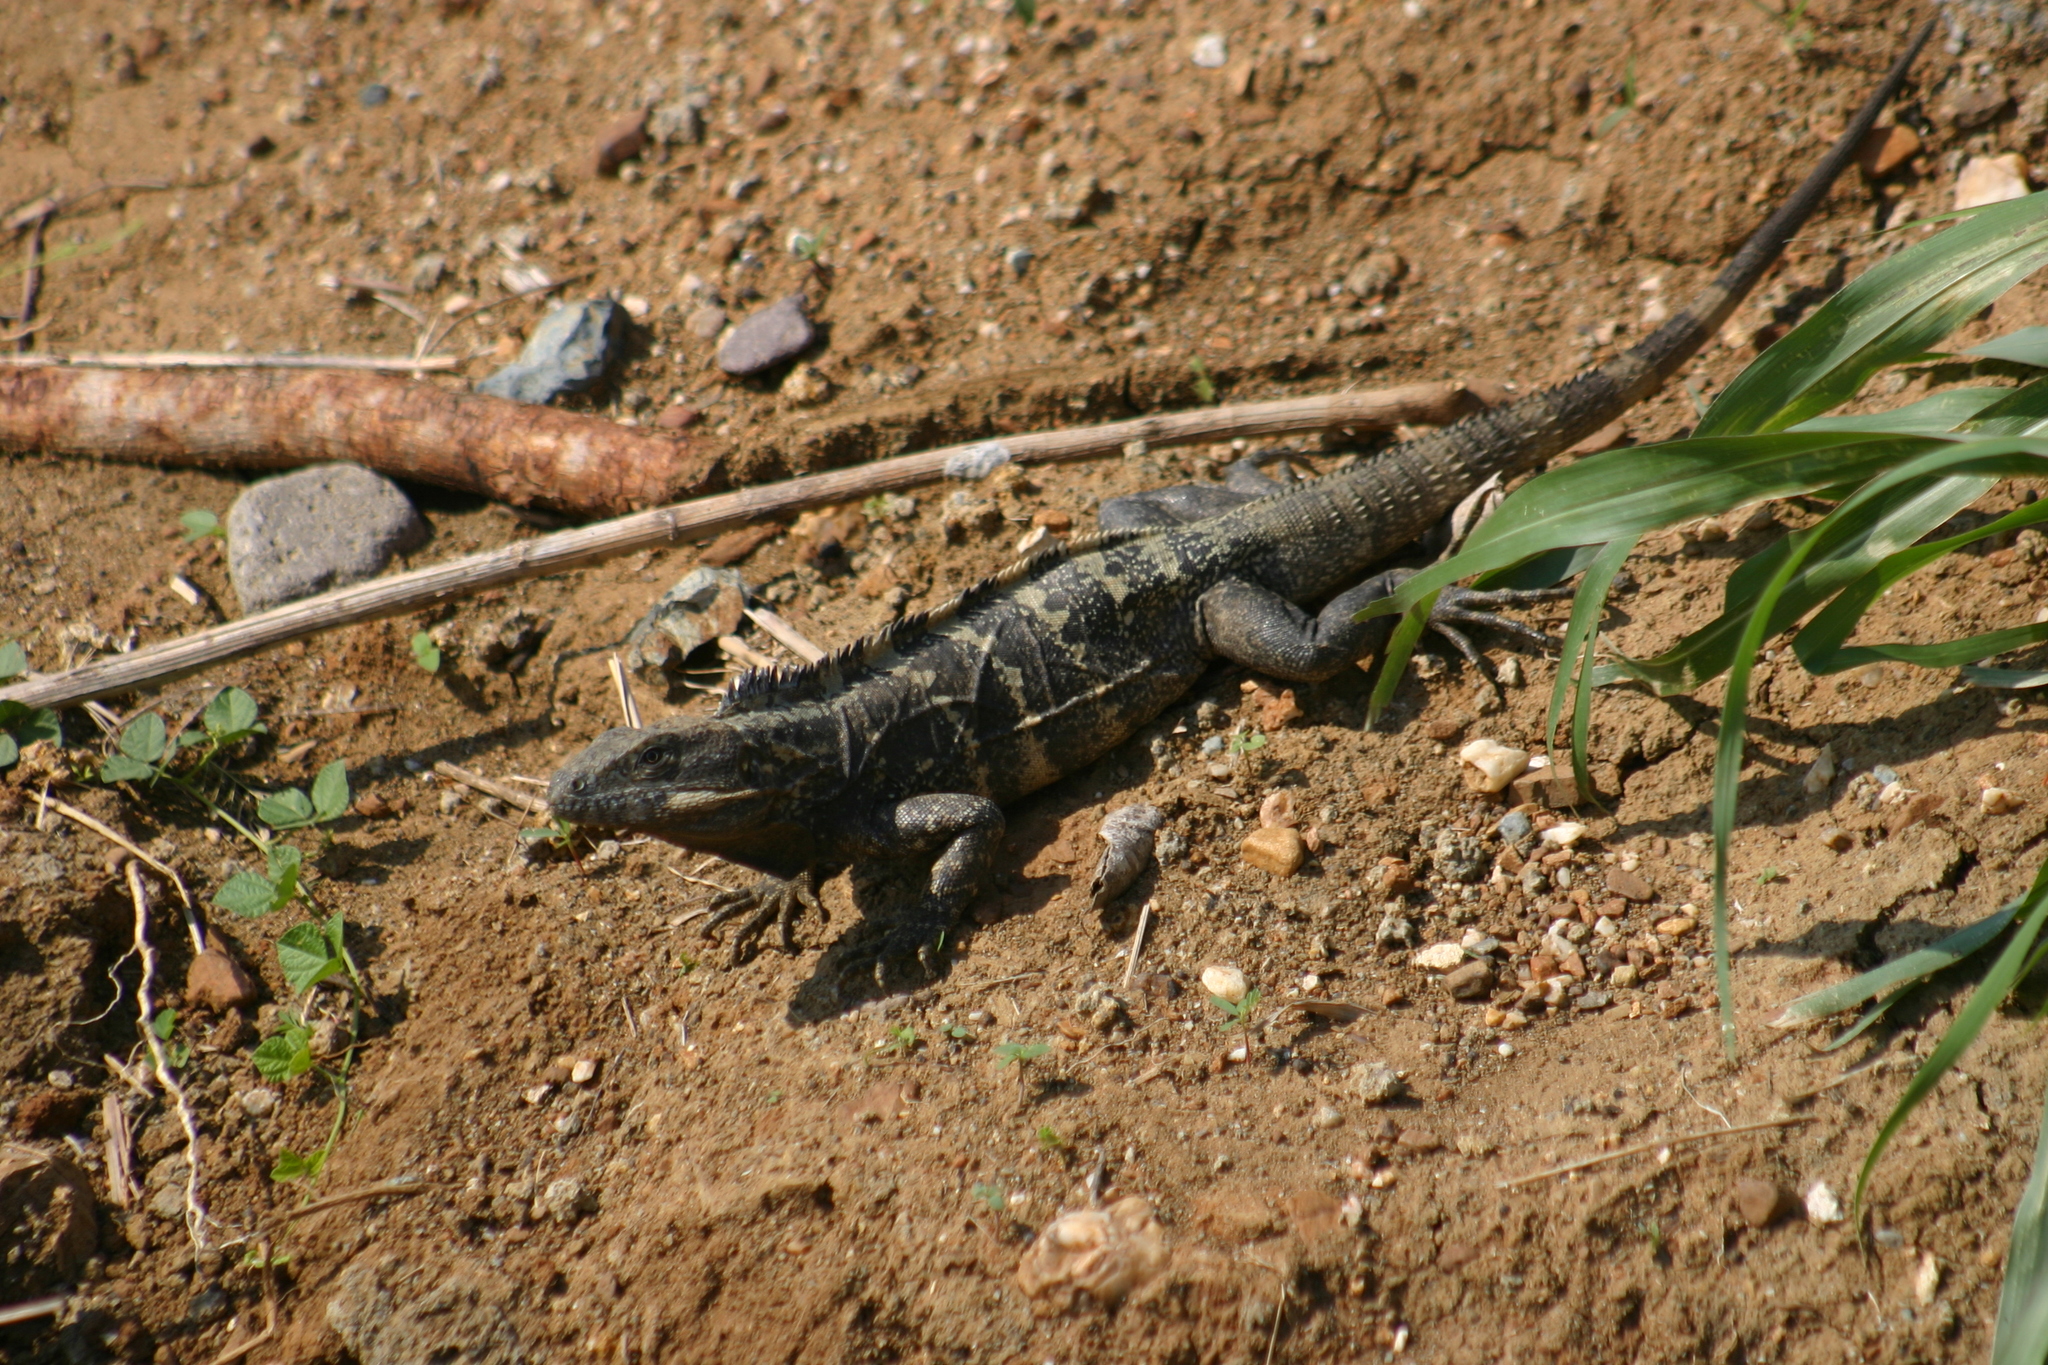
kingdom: Animalia
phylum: Chordata
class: Squamata
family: Iguanidae
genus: Ctenosaura
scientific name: Ctenosaura pectinata
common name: Guerreran spiny-tailed iguana
